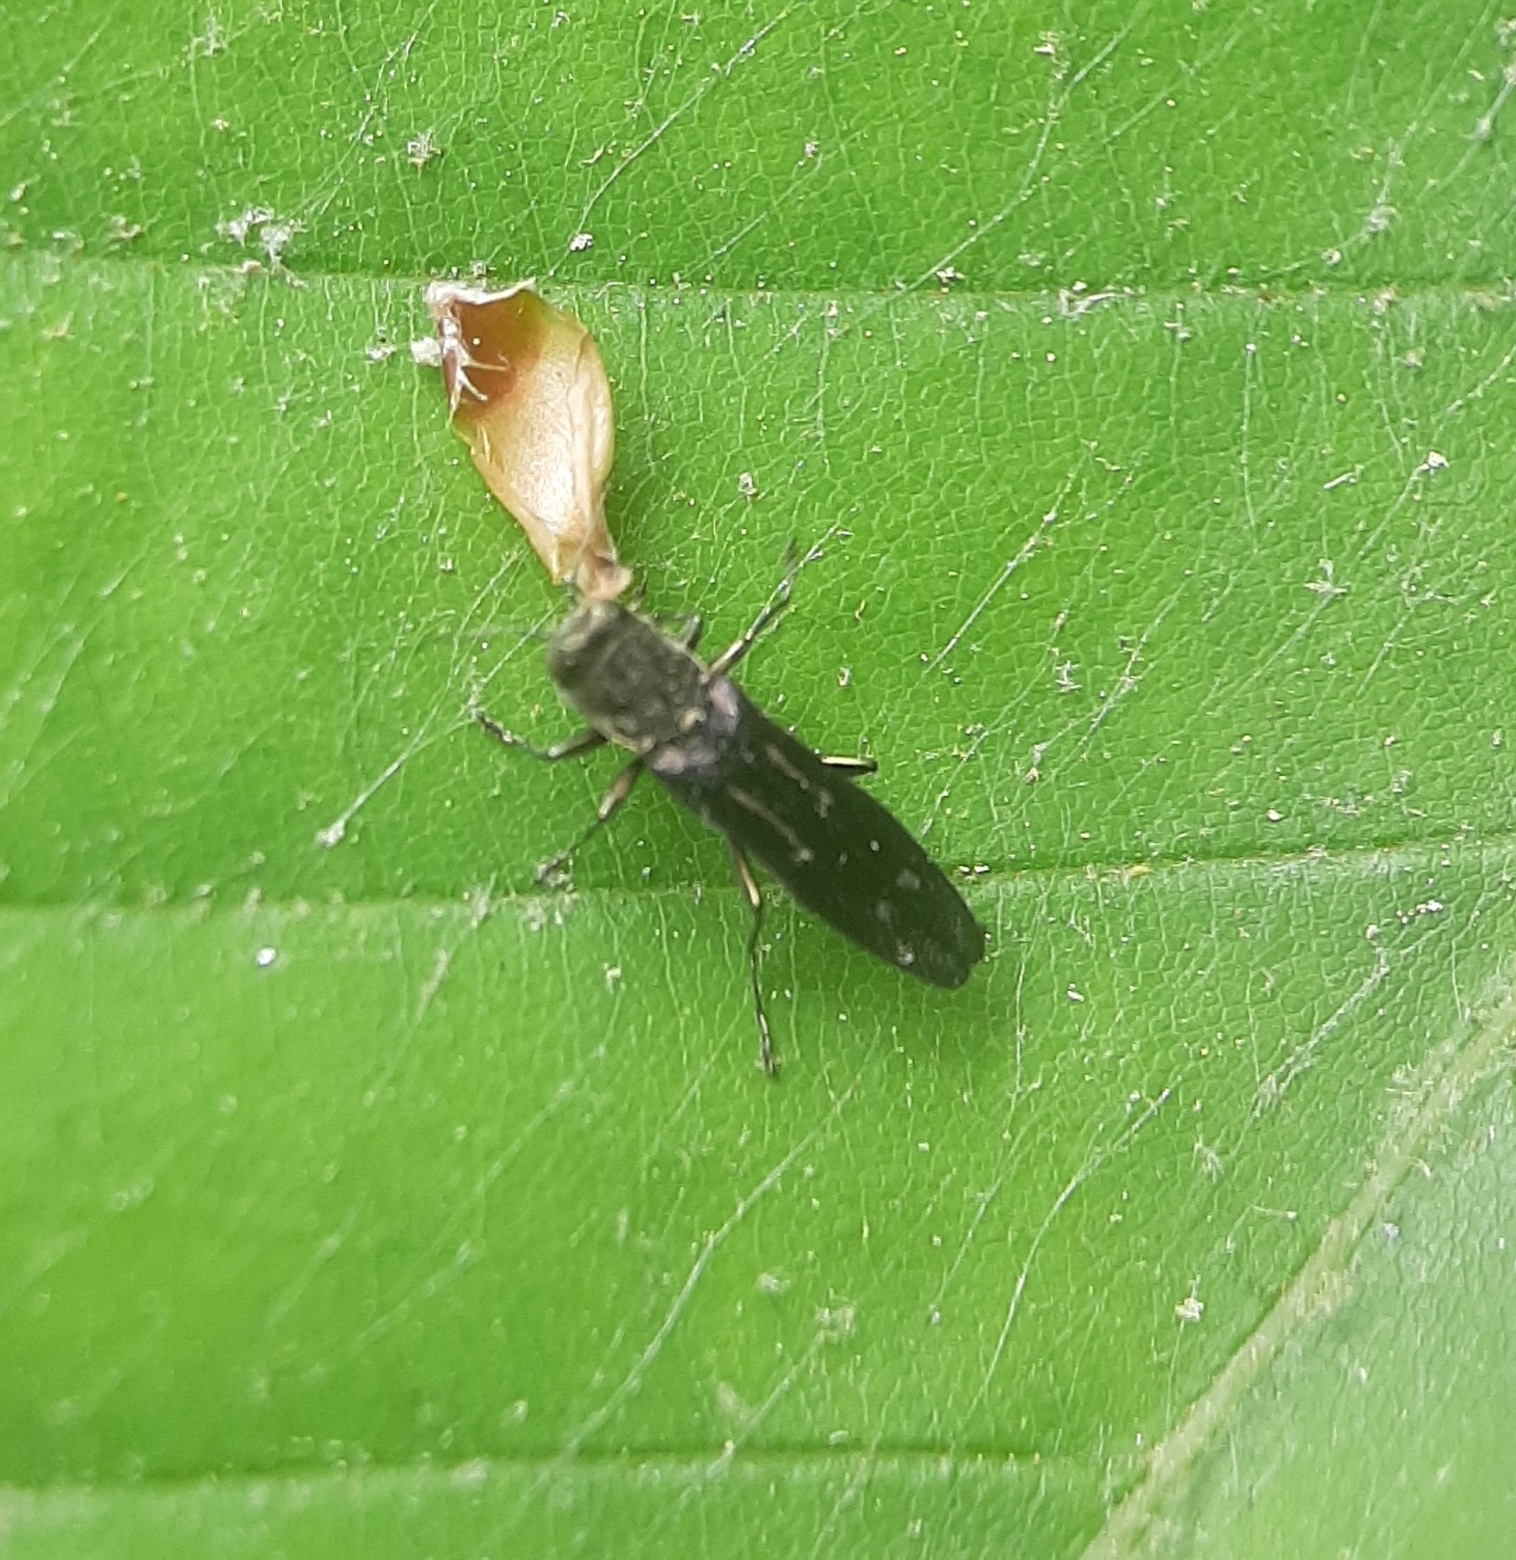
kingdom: Animalia
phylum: Arthropoda
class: Insecta
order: Coleoptera
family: Buprestidae
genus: Agrilus
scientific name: Agrilus obsoletoguttatus
